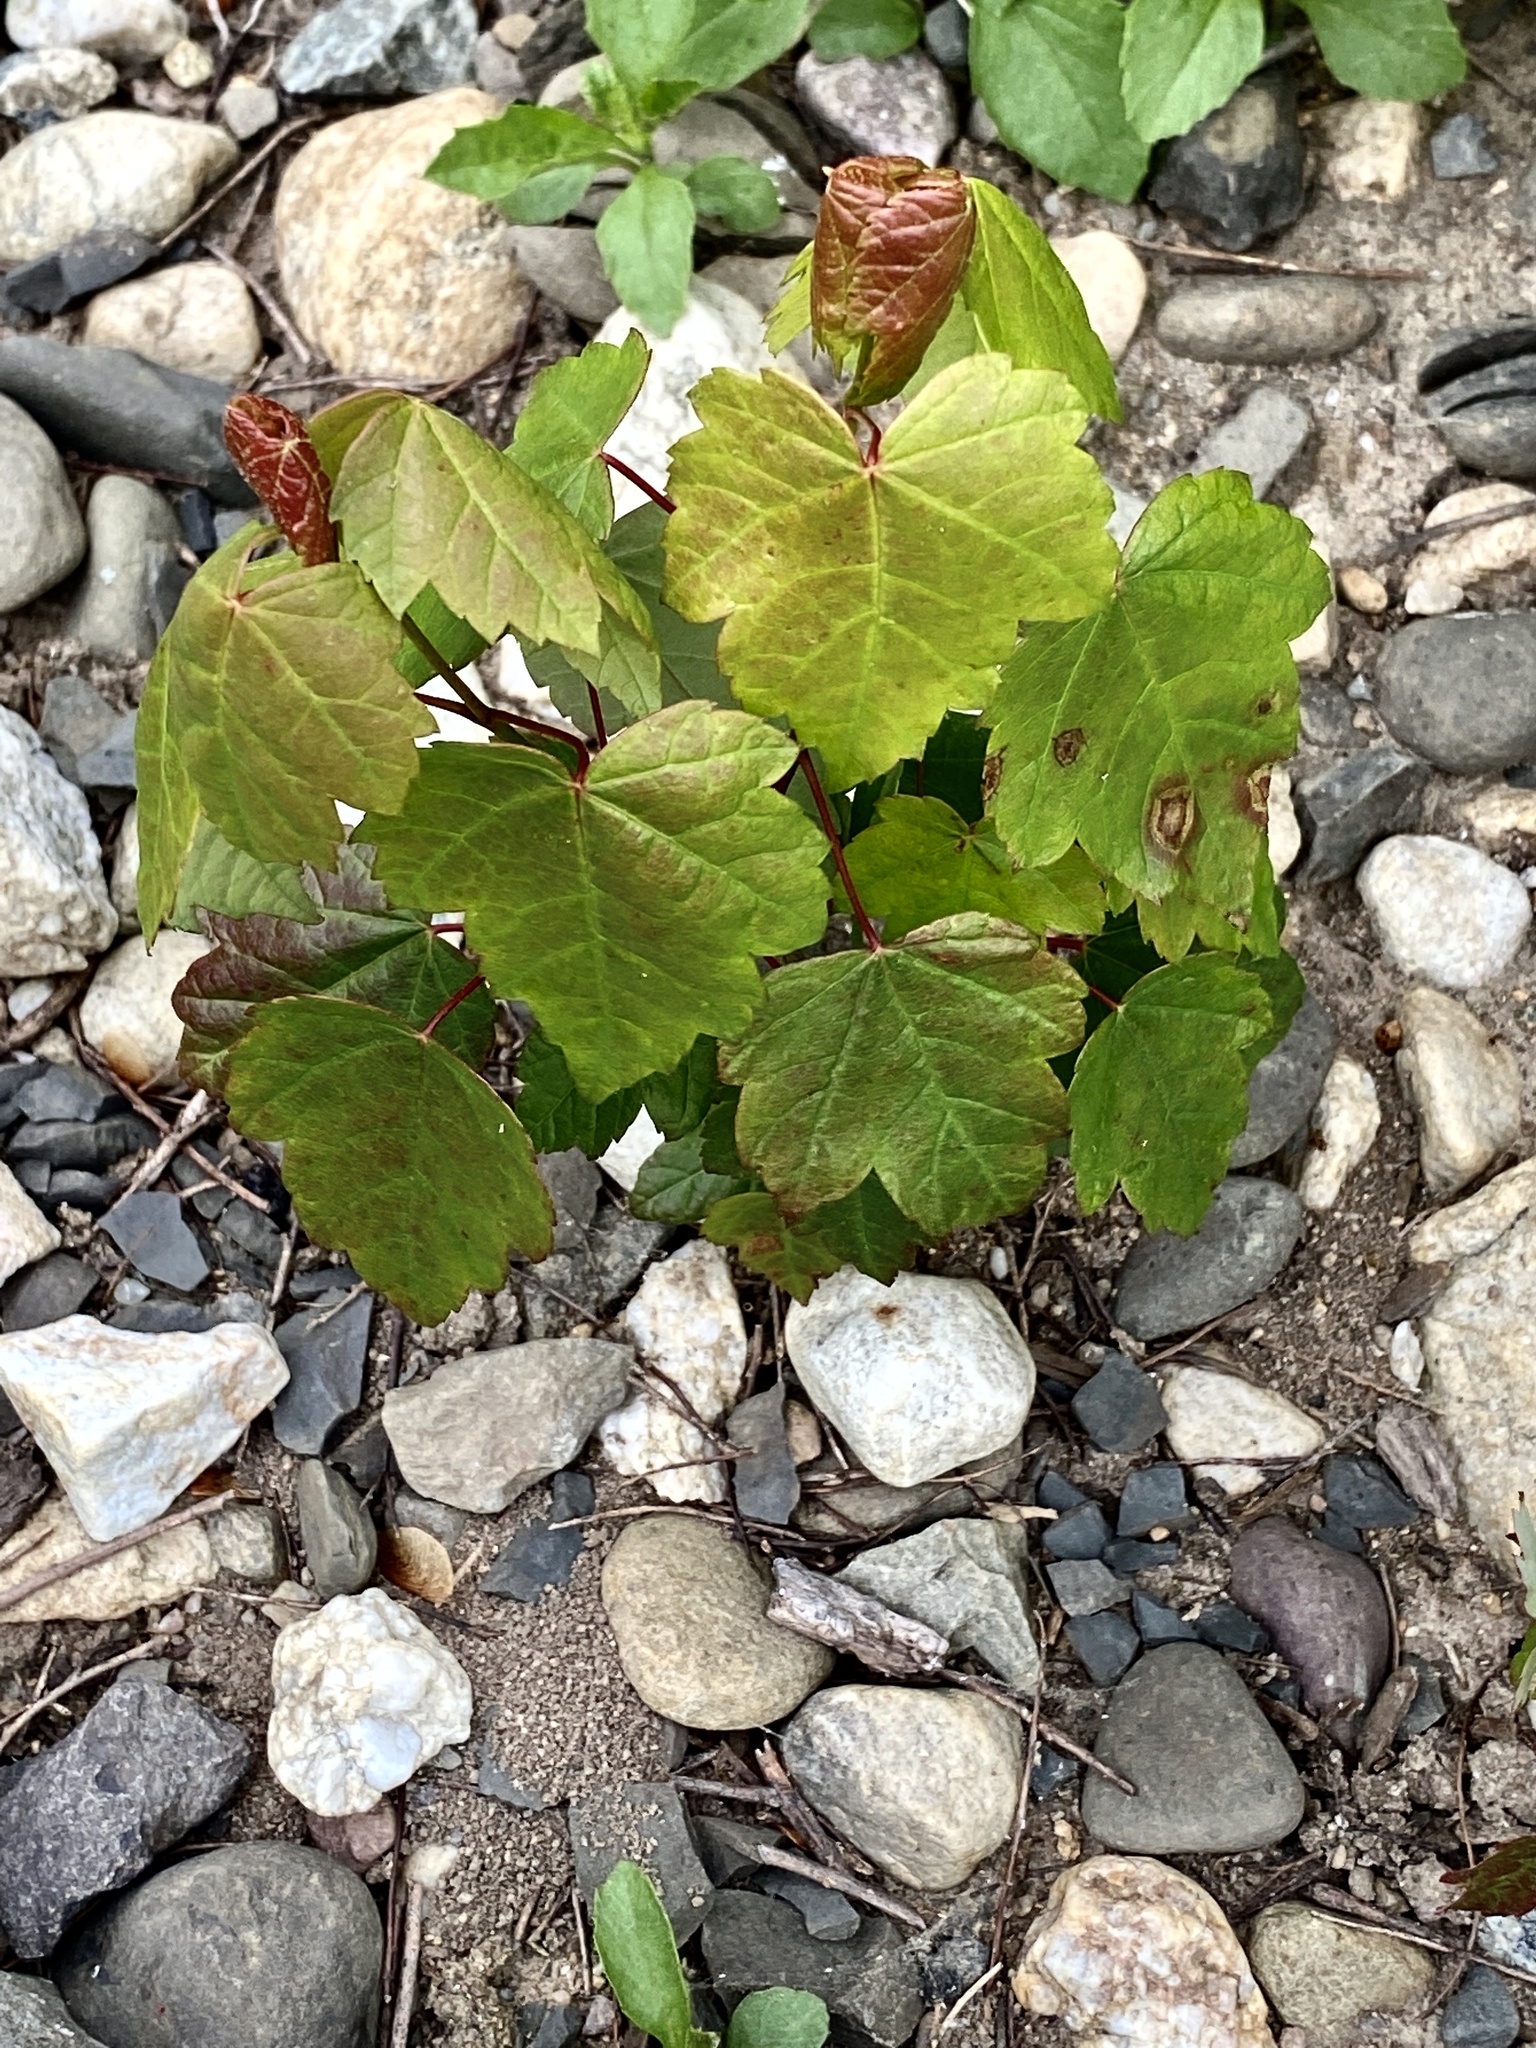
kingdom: Plantae
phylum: Tracheophyta
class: Magnoliopsida
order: Sapindales
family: Sapindaceae
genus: Acer
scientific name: Acer rubrum
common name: Red maple
